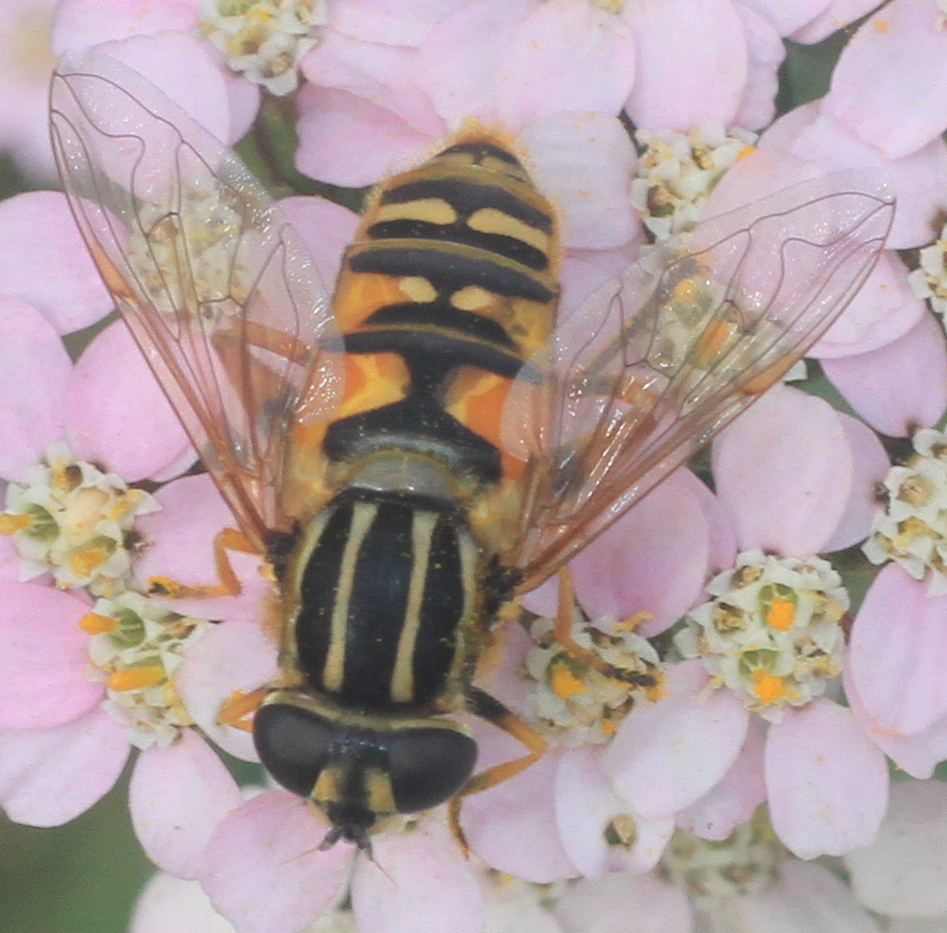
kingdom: Animalia
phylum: Arthropoda
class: Insecta
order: Diptera
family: Syrphidae
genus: Helophilus
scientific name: Helophilus pendulus
